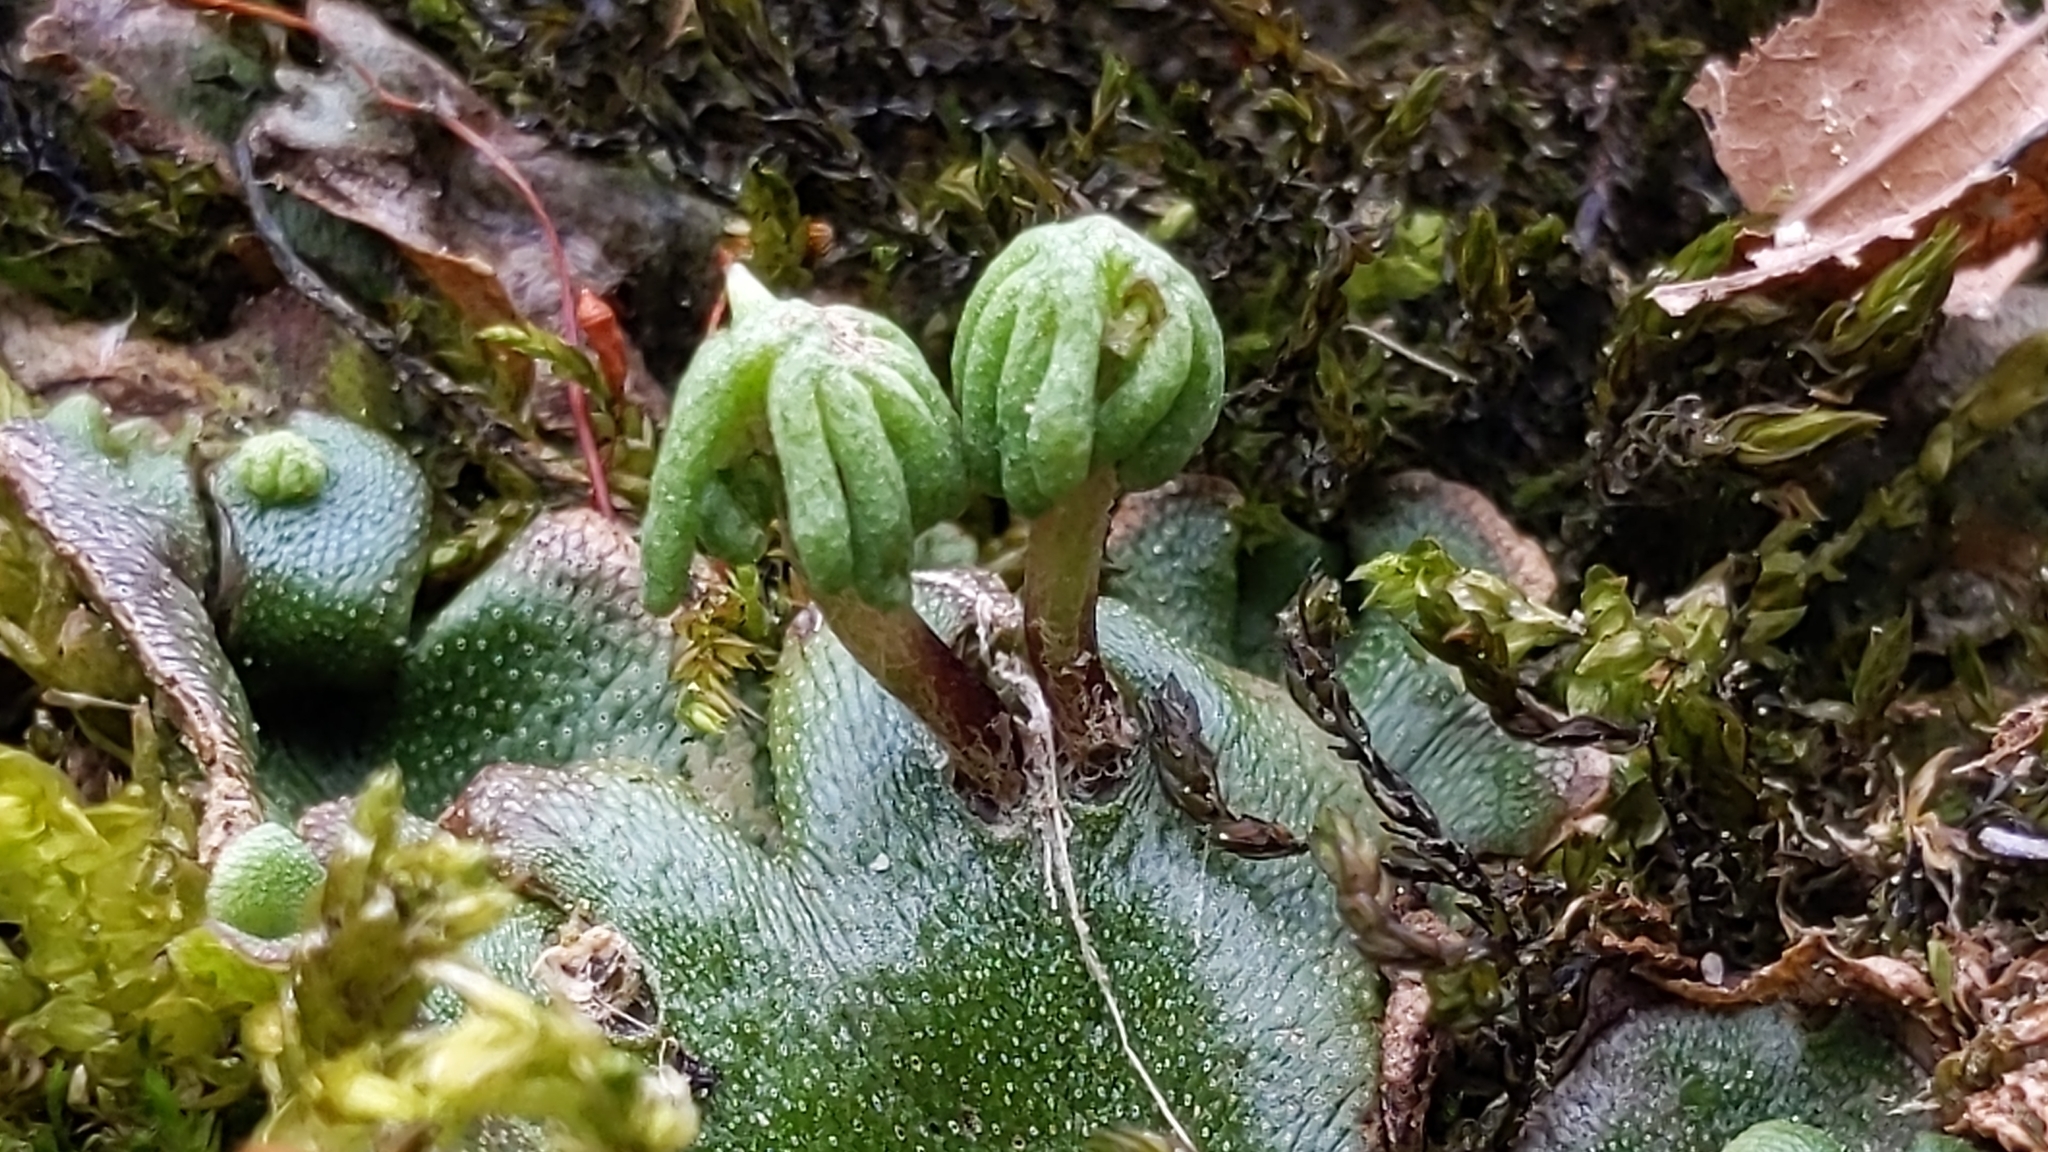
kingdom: Plantae
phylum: Marchantiophyta
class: Marchantiopsida
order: Marchantiales
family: Marchantiaceae
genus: Marchantia
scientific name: Marchantia polymorpha
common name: Common liverwort
